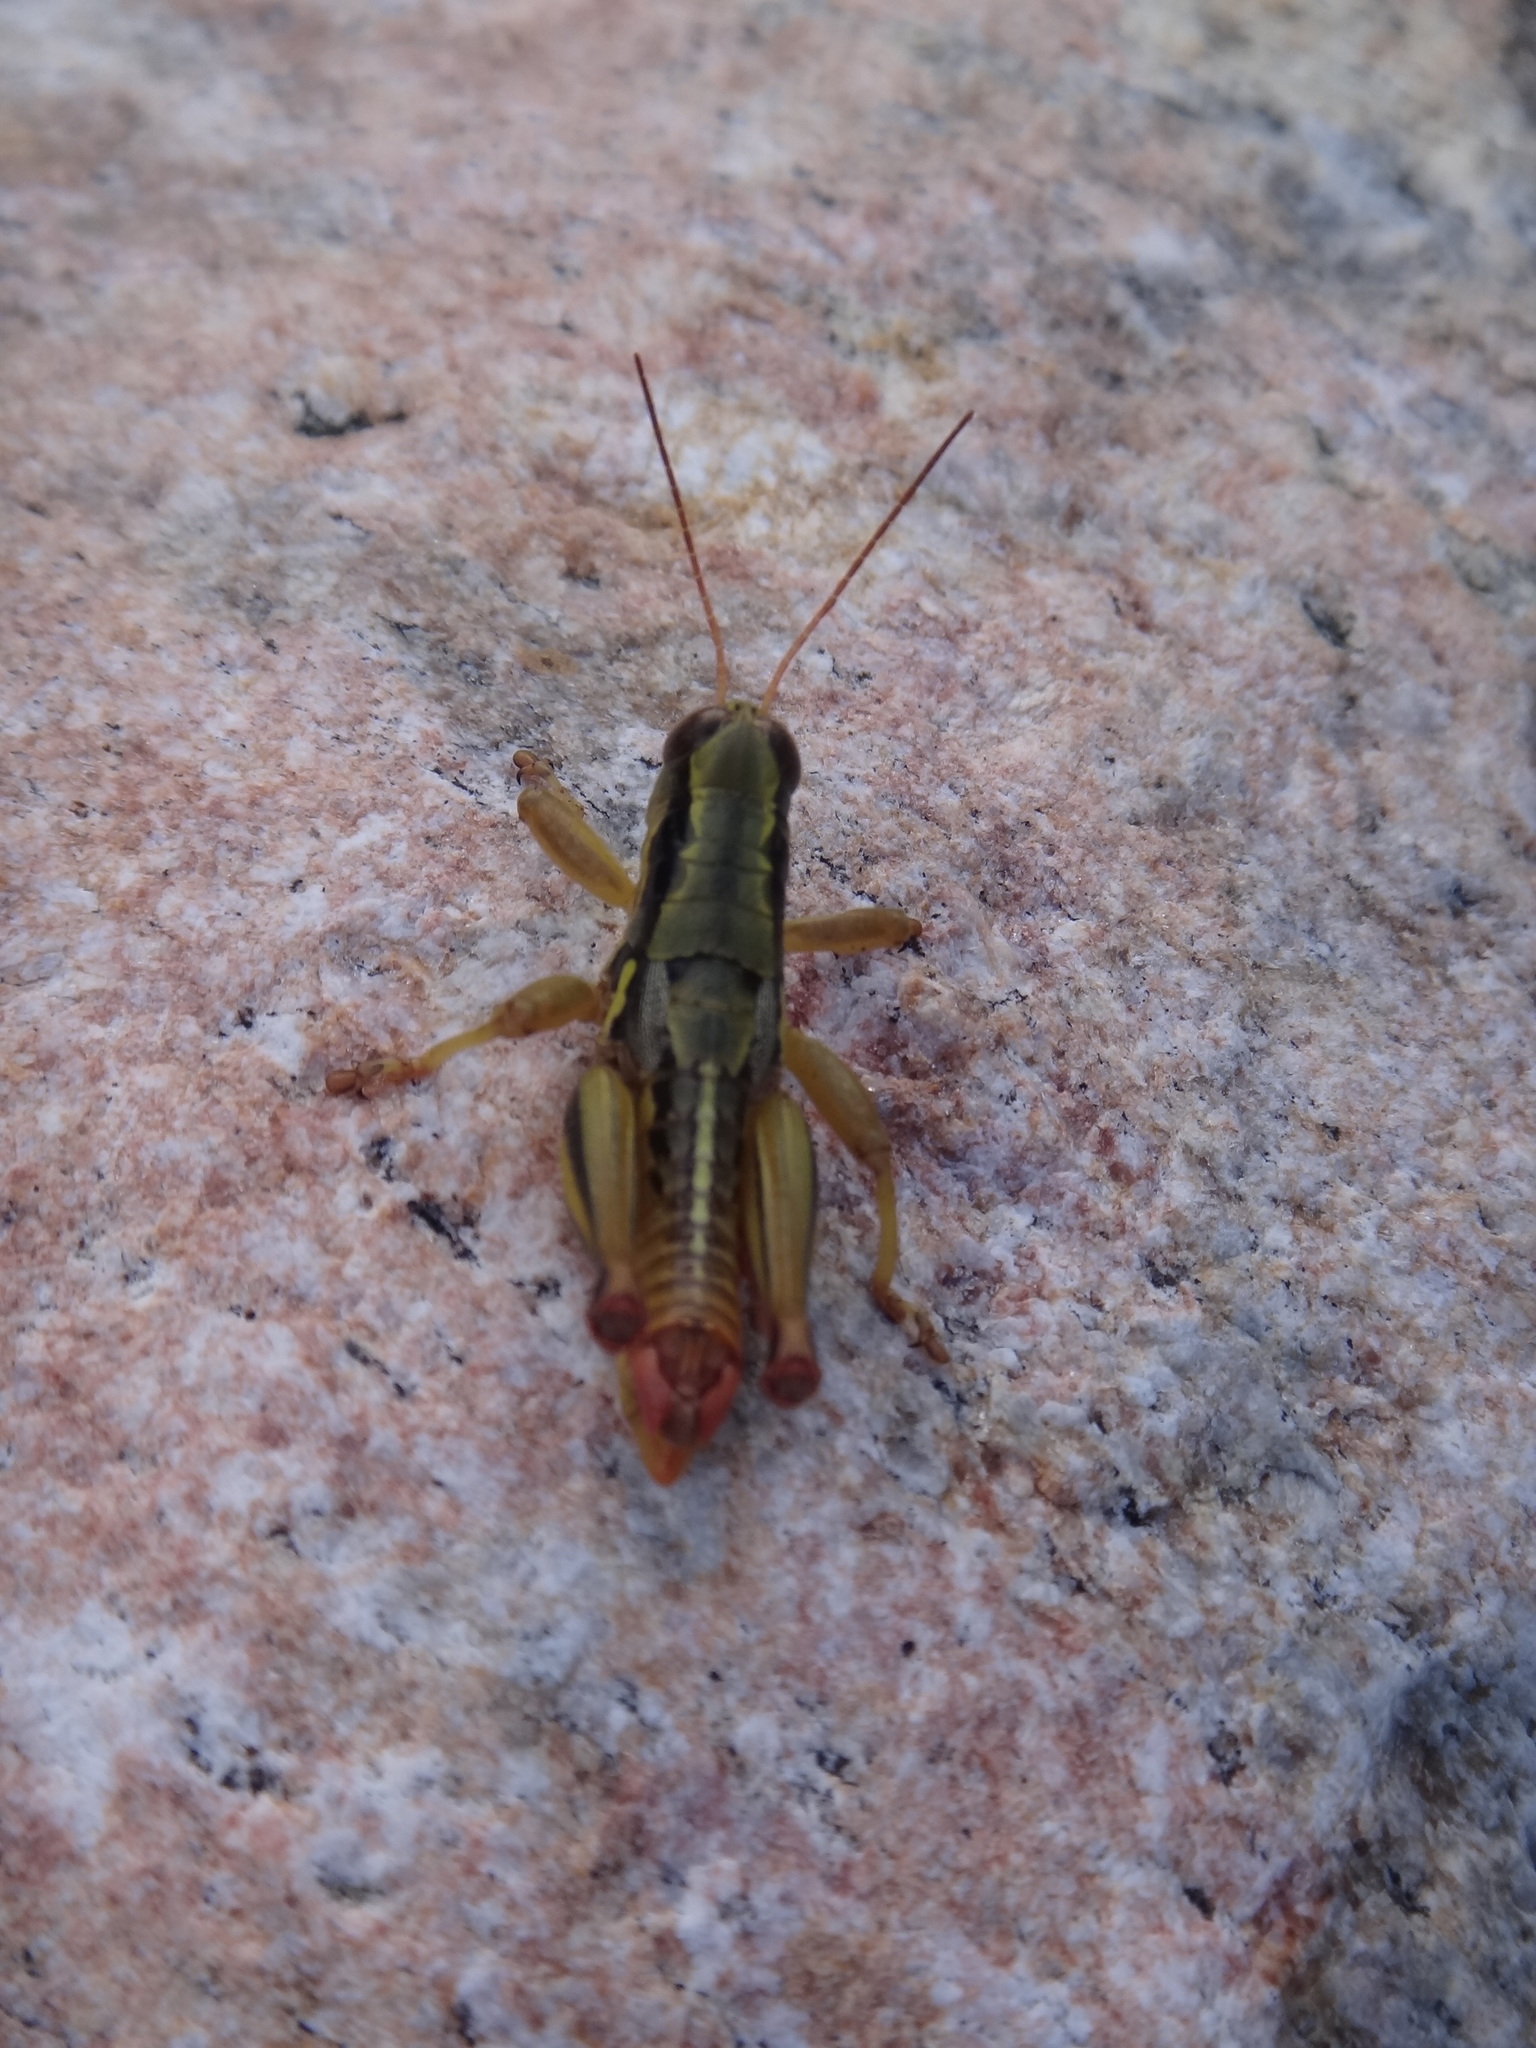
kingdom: Animalia
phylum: Arthropoda
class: Insecta
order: Orthoptera
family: Acrididae
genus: Barytettix
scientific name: Barytettix crassus
